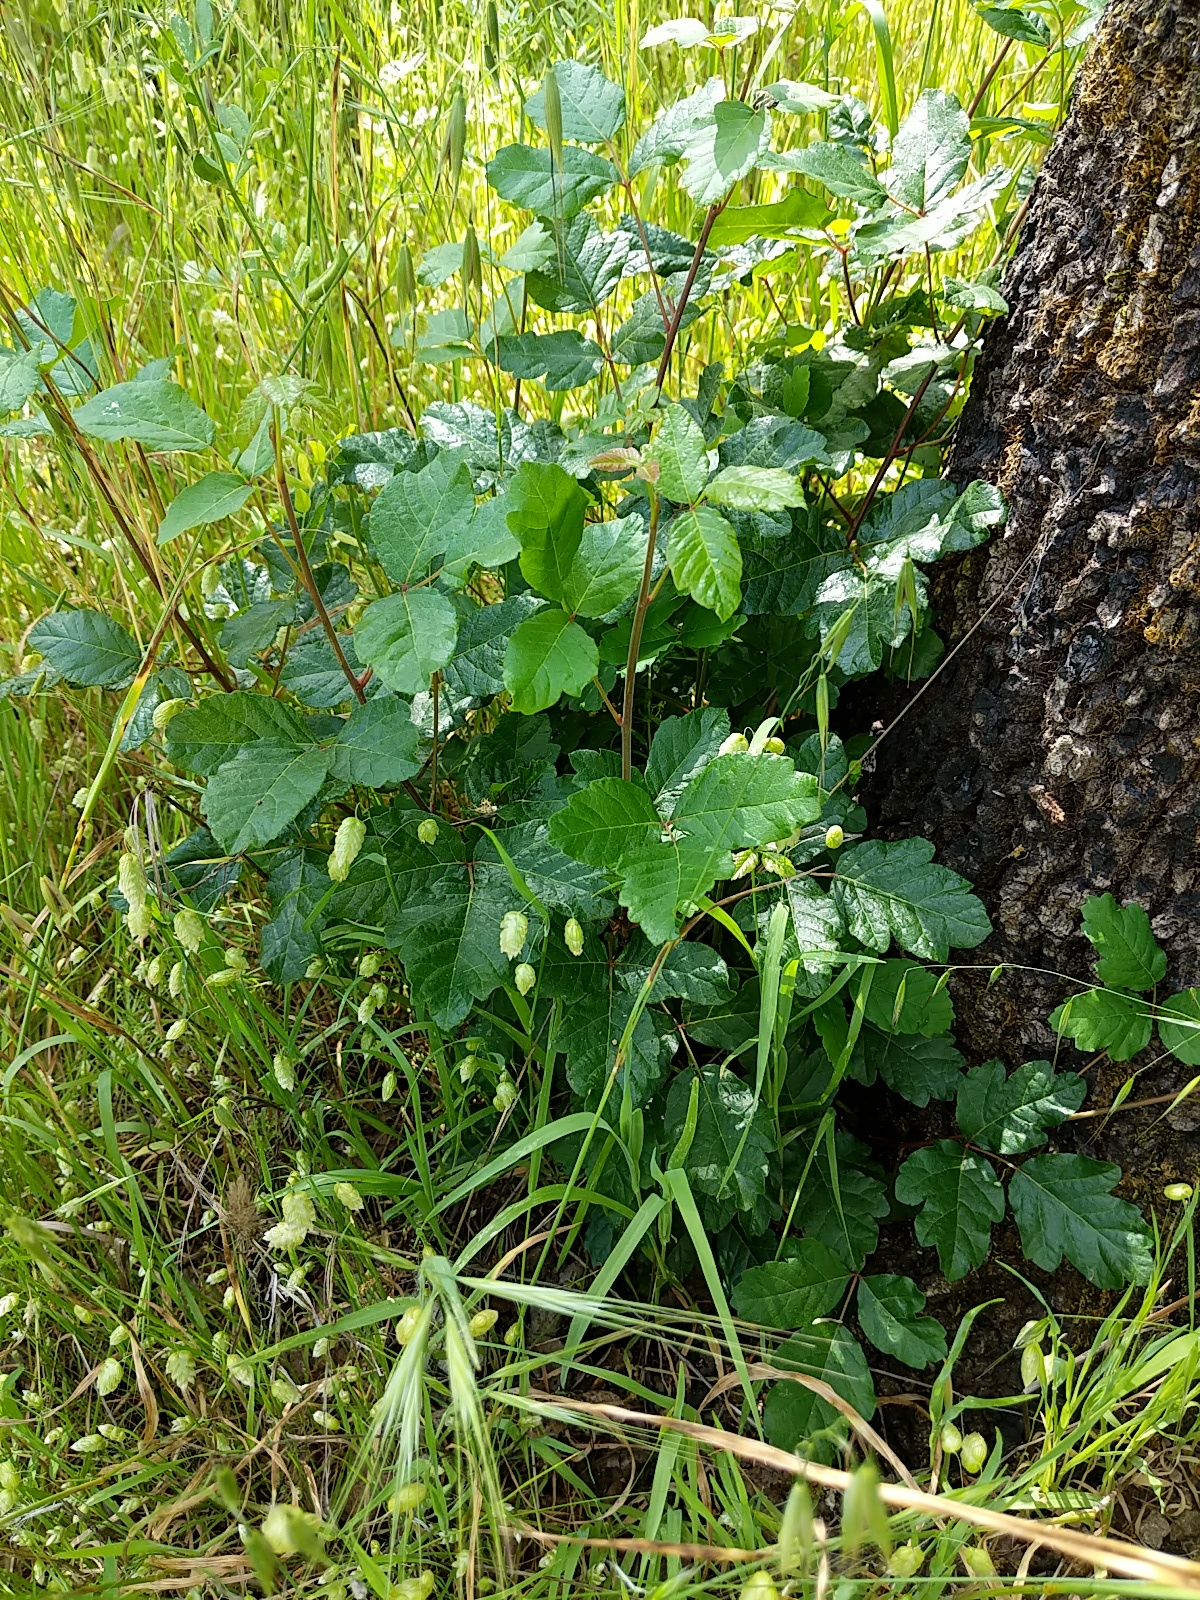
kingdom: Plantae
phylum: Tracheophyta
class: Magnoliopsida
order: Sapindales
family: Anacardiaceae
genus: Toxicodendron
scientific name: Toxicodendron diversilobum
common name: Pacific poison-oak
